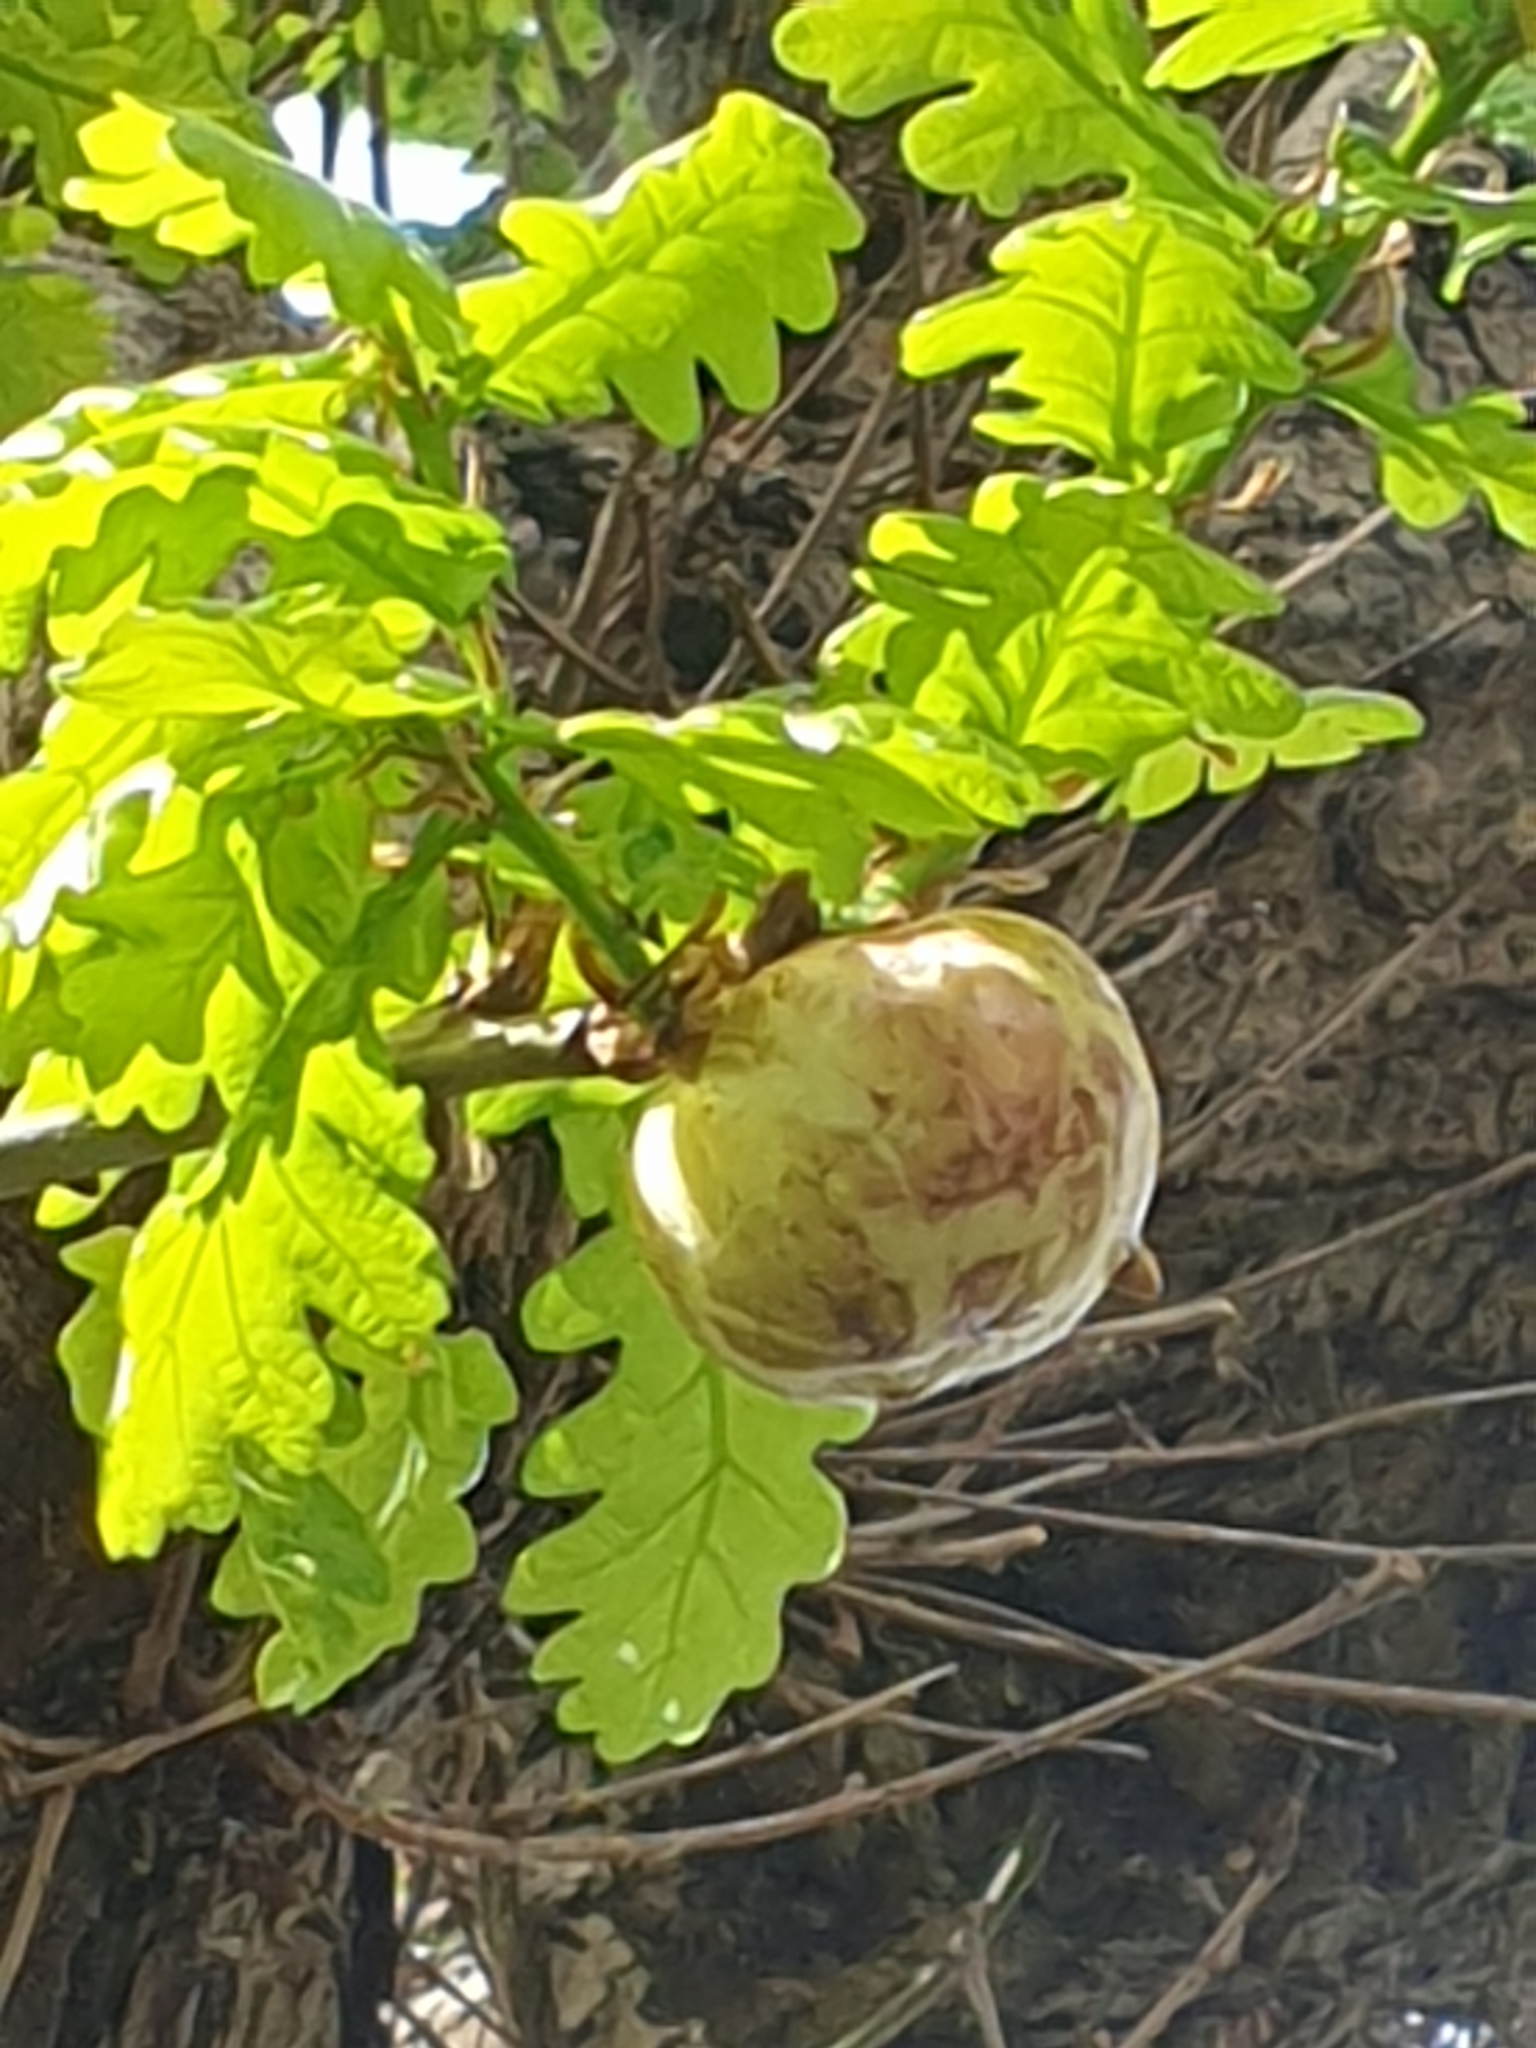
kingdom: Animalia
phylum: Arthropoda
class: Insecta
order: Hymenoptera
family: Cynipidae
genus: Biorhiza
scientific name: Biorhiza pallida
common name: Oak apple
